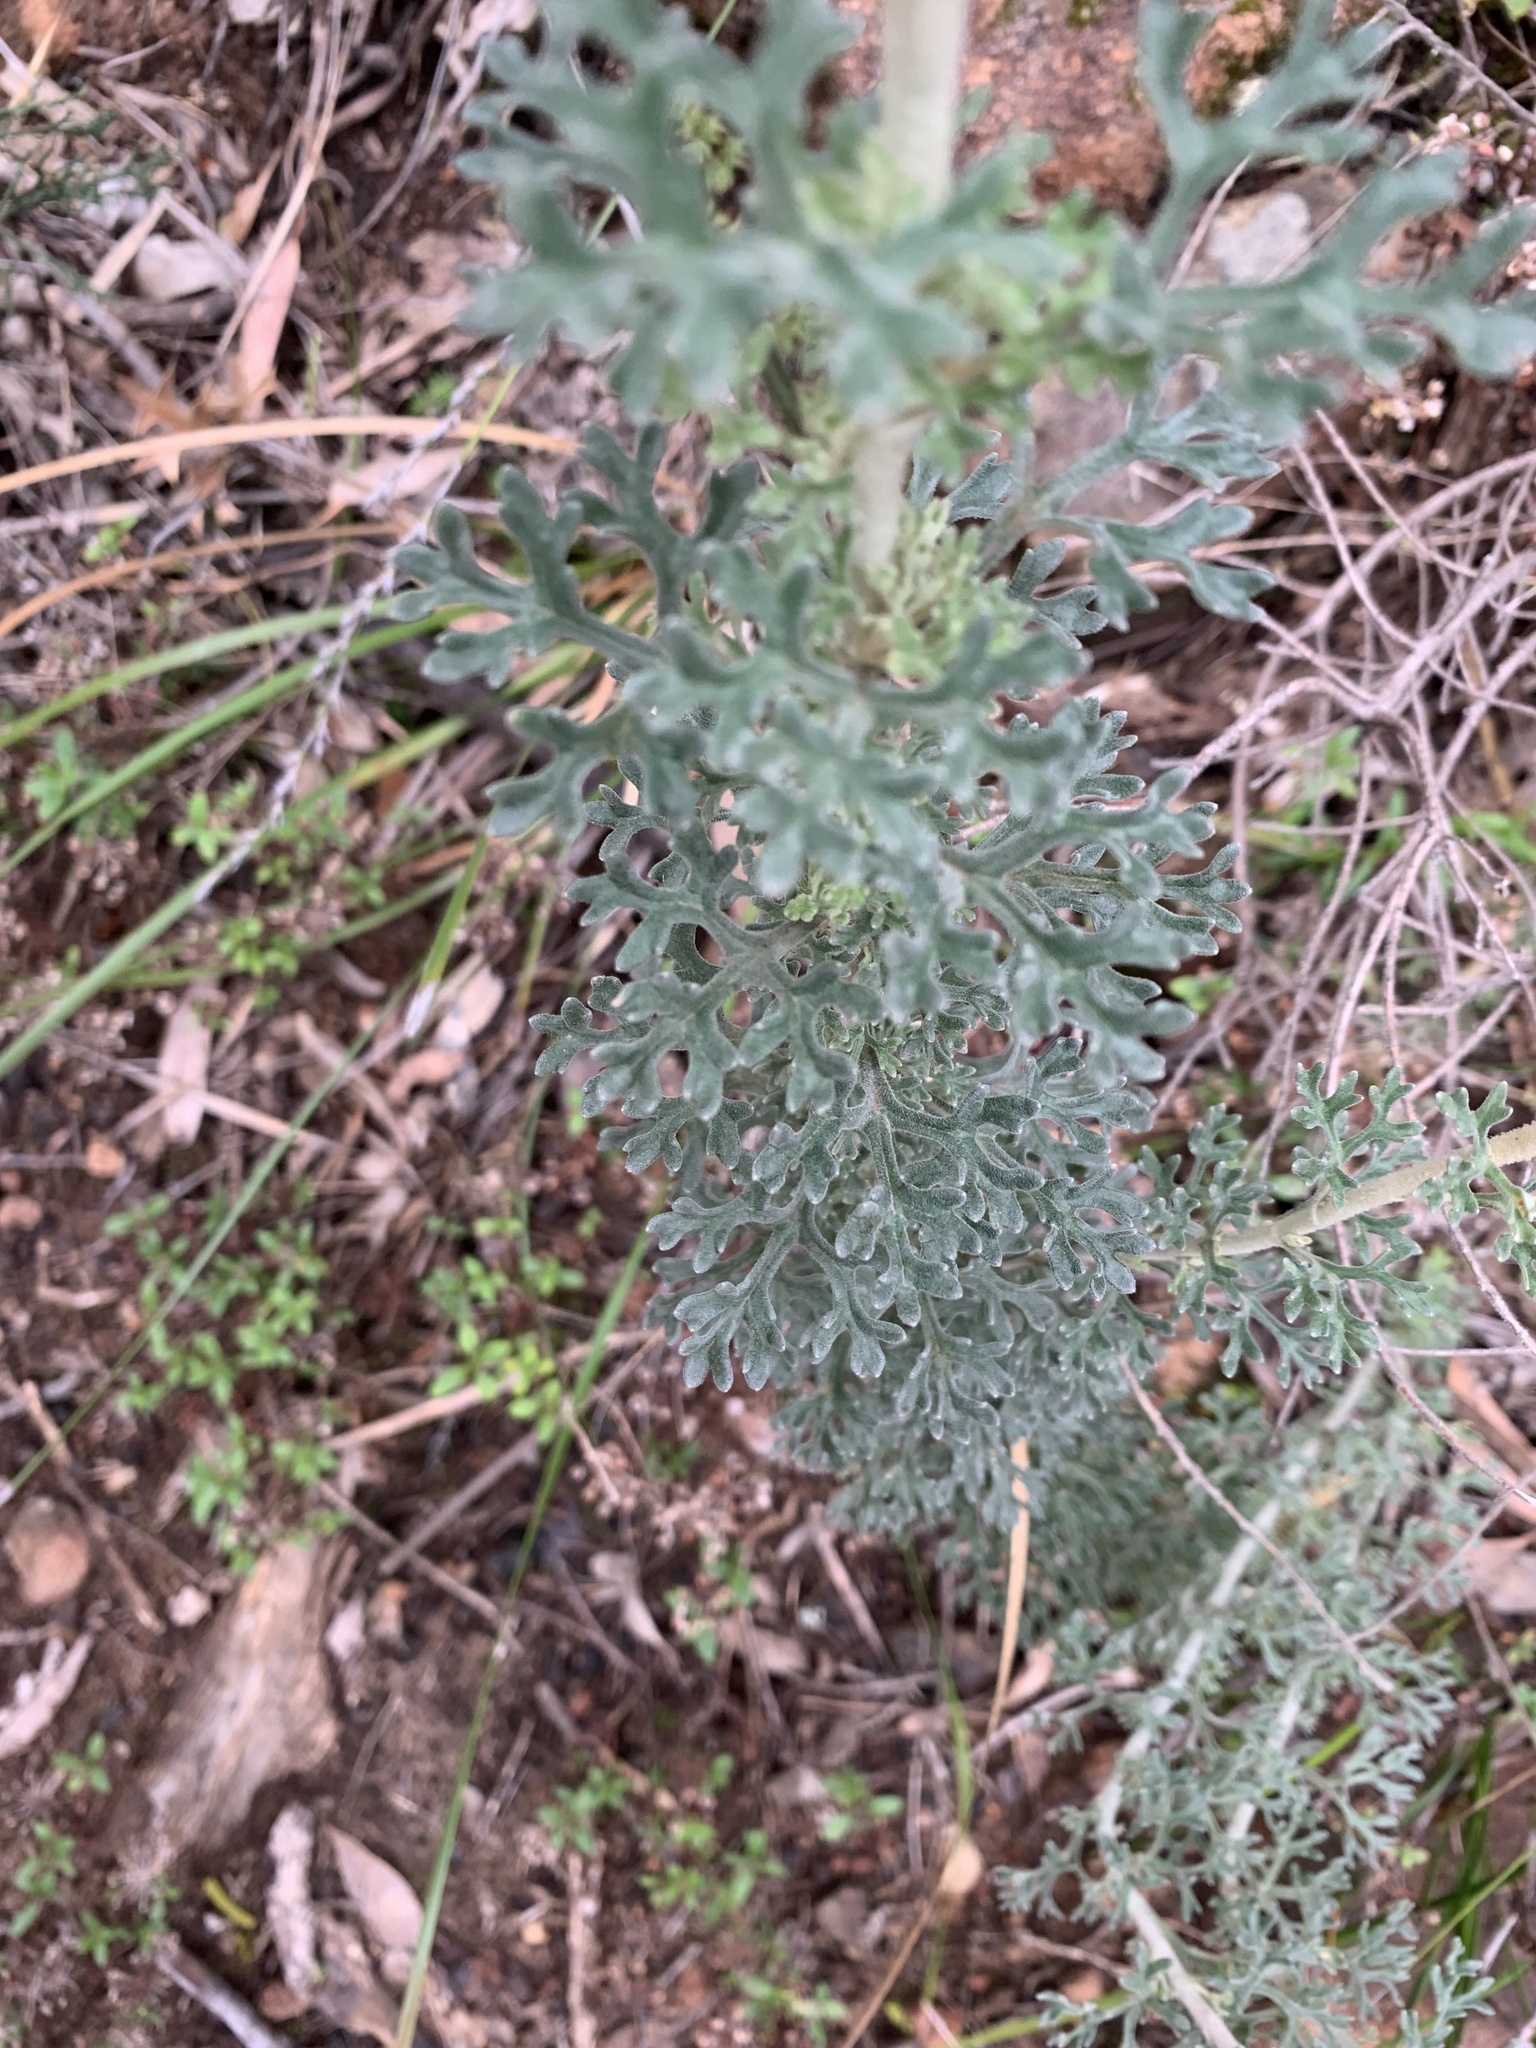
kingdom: Plantae
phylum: Tracheophyta
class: Magnoliopsida
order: Apiales
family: Apiaceae
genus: Actinotus
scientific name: Actinotus helianthi
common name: Flannel-flower
